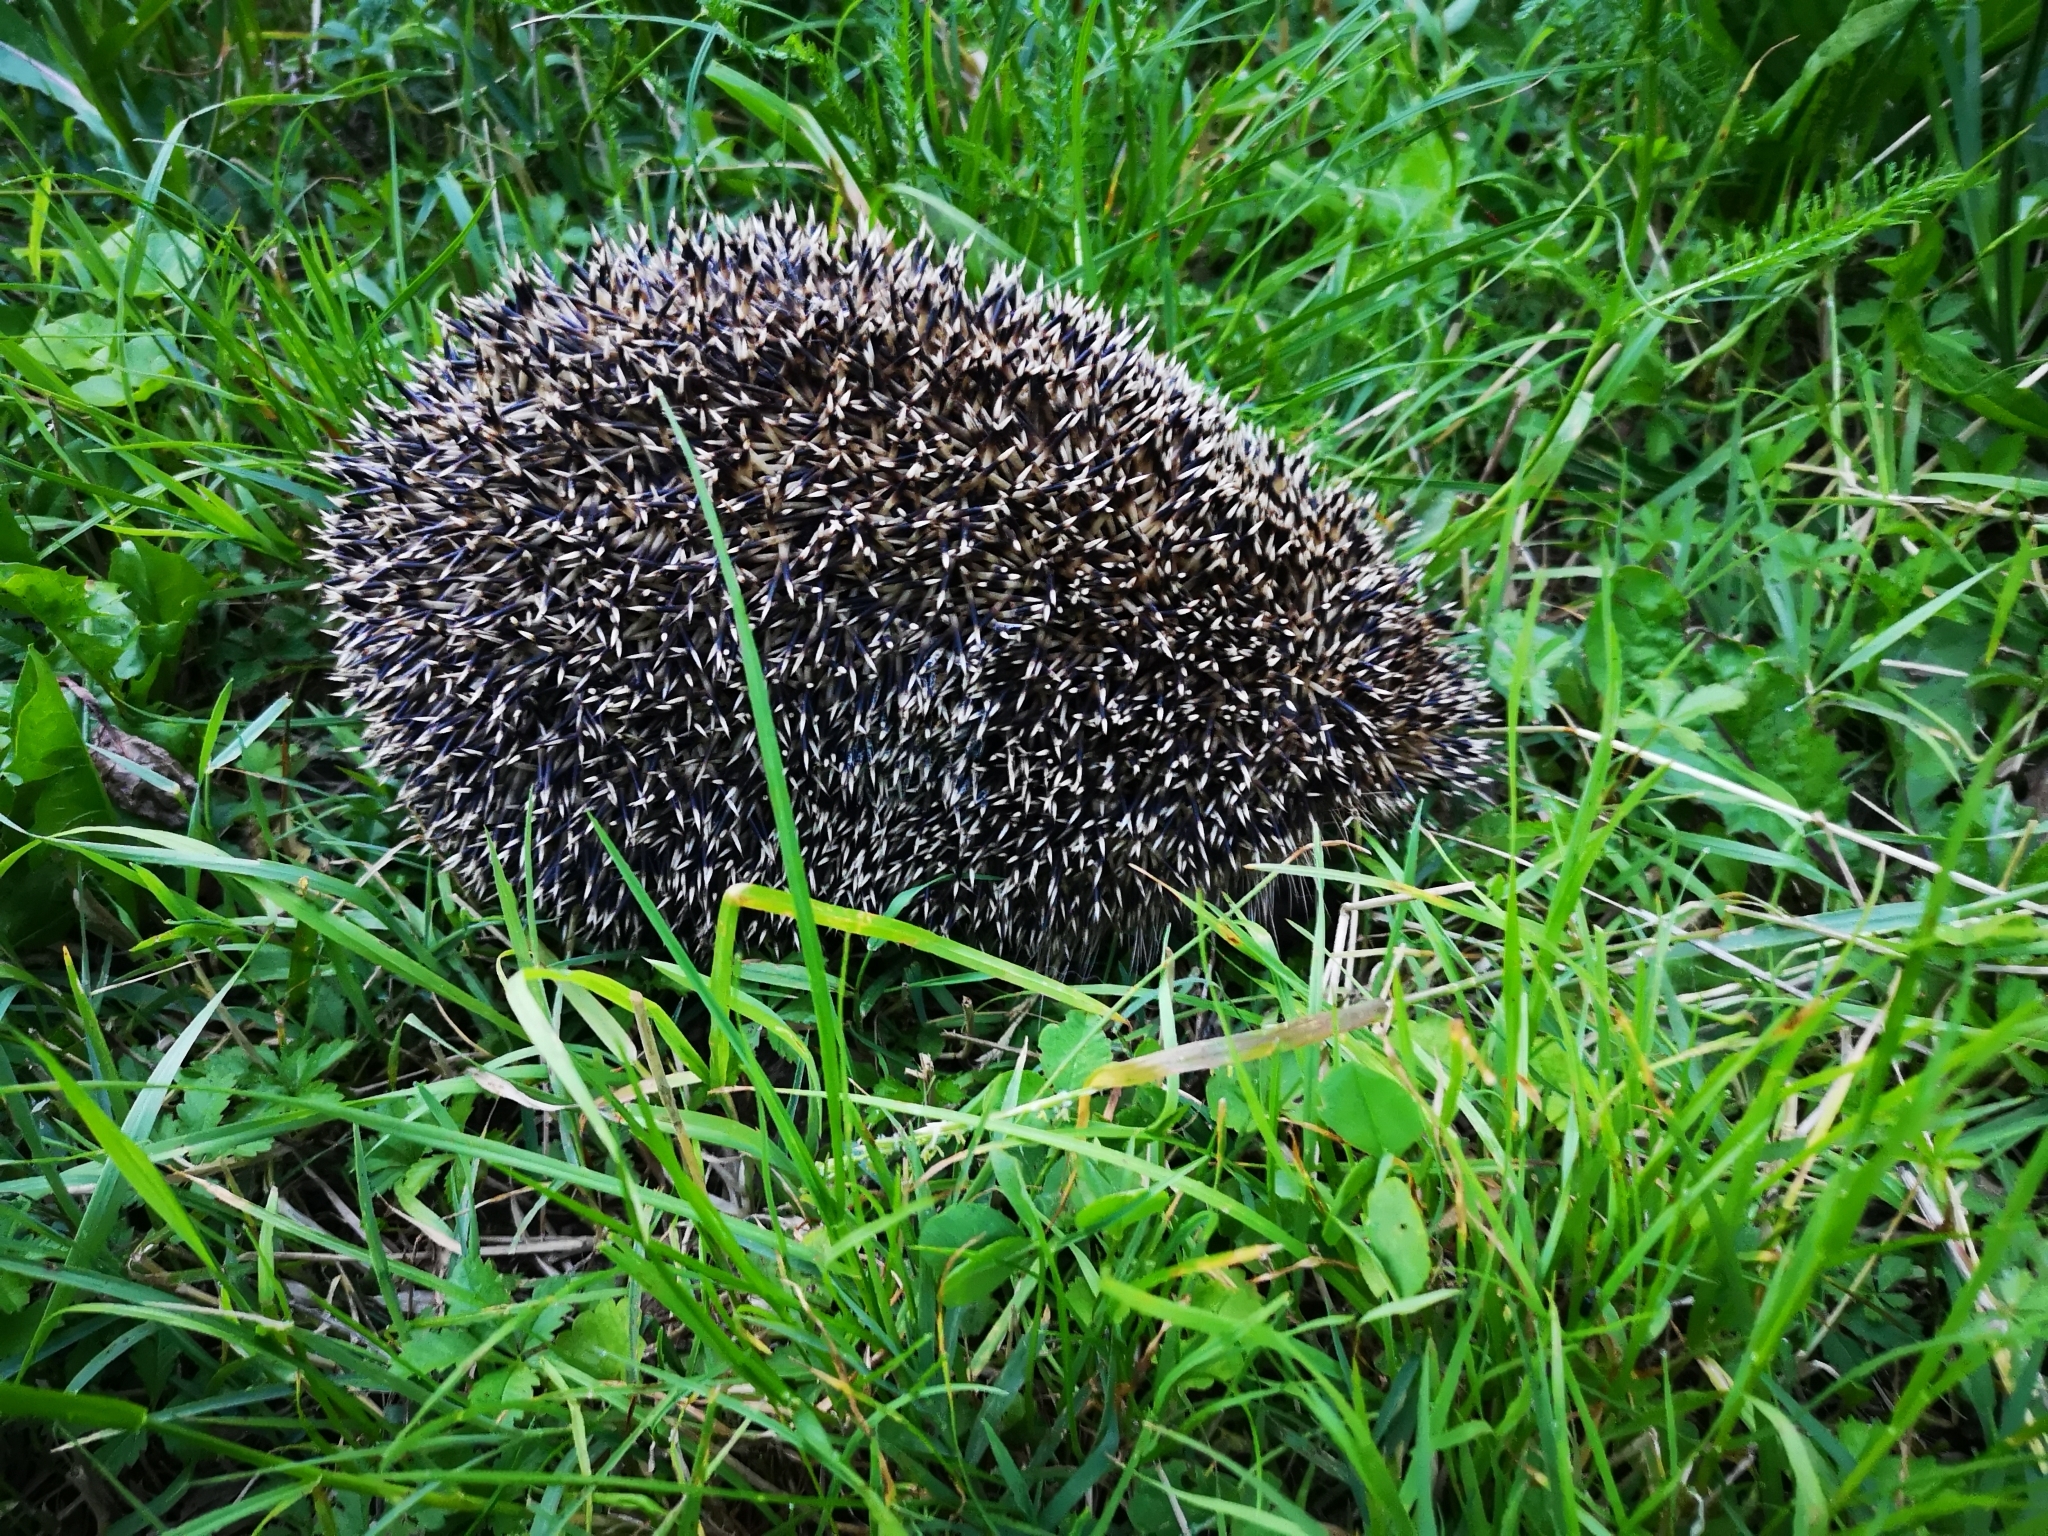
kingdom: Animalia
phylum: Chordata
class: Mammalia
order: Erinaceomorpha
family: Erinaceidae
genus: Erinaceus
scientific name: Erinaceus europaeus
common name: West european hedgehog
